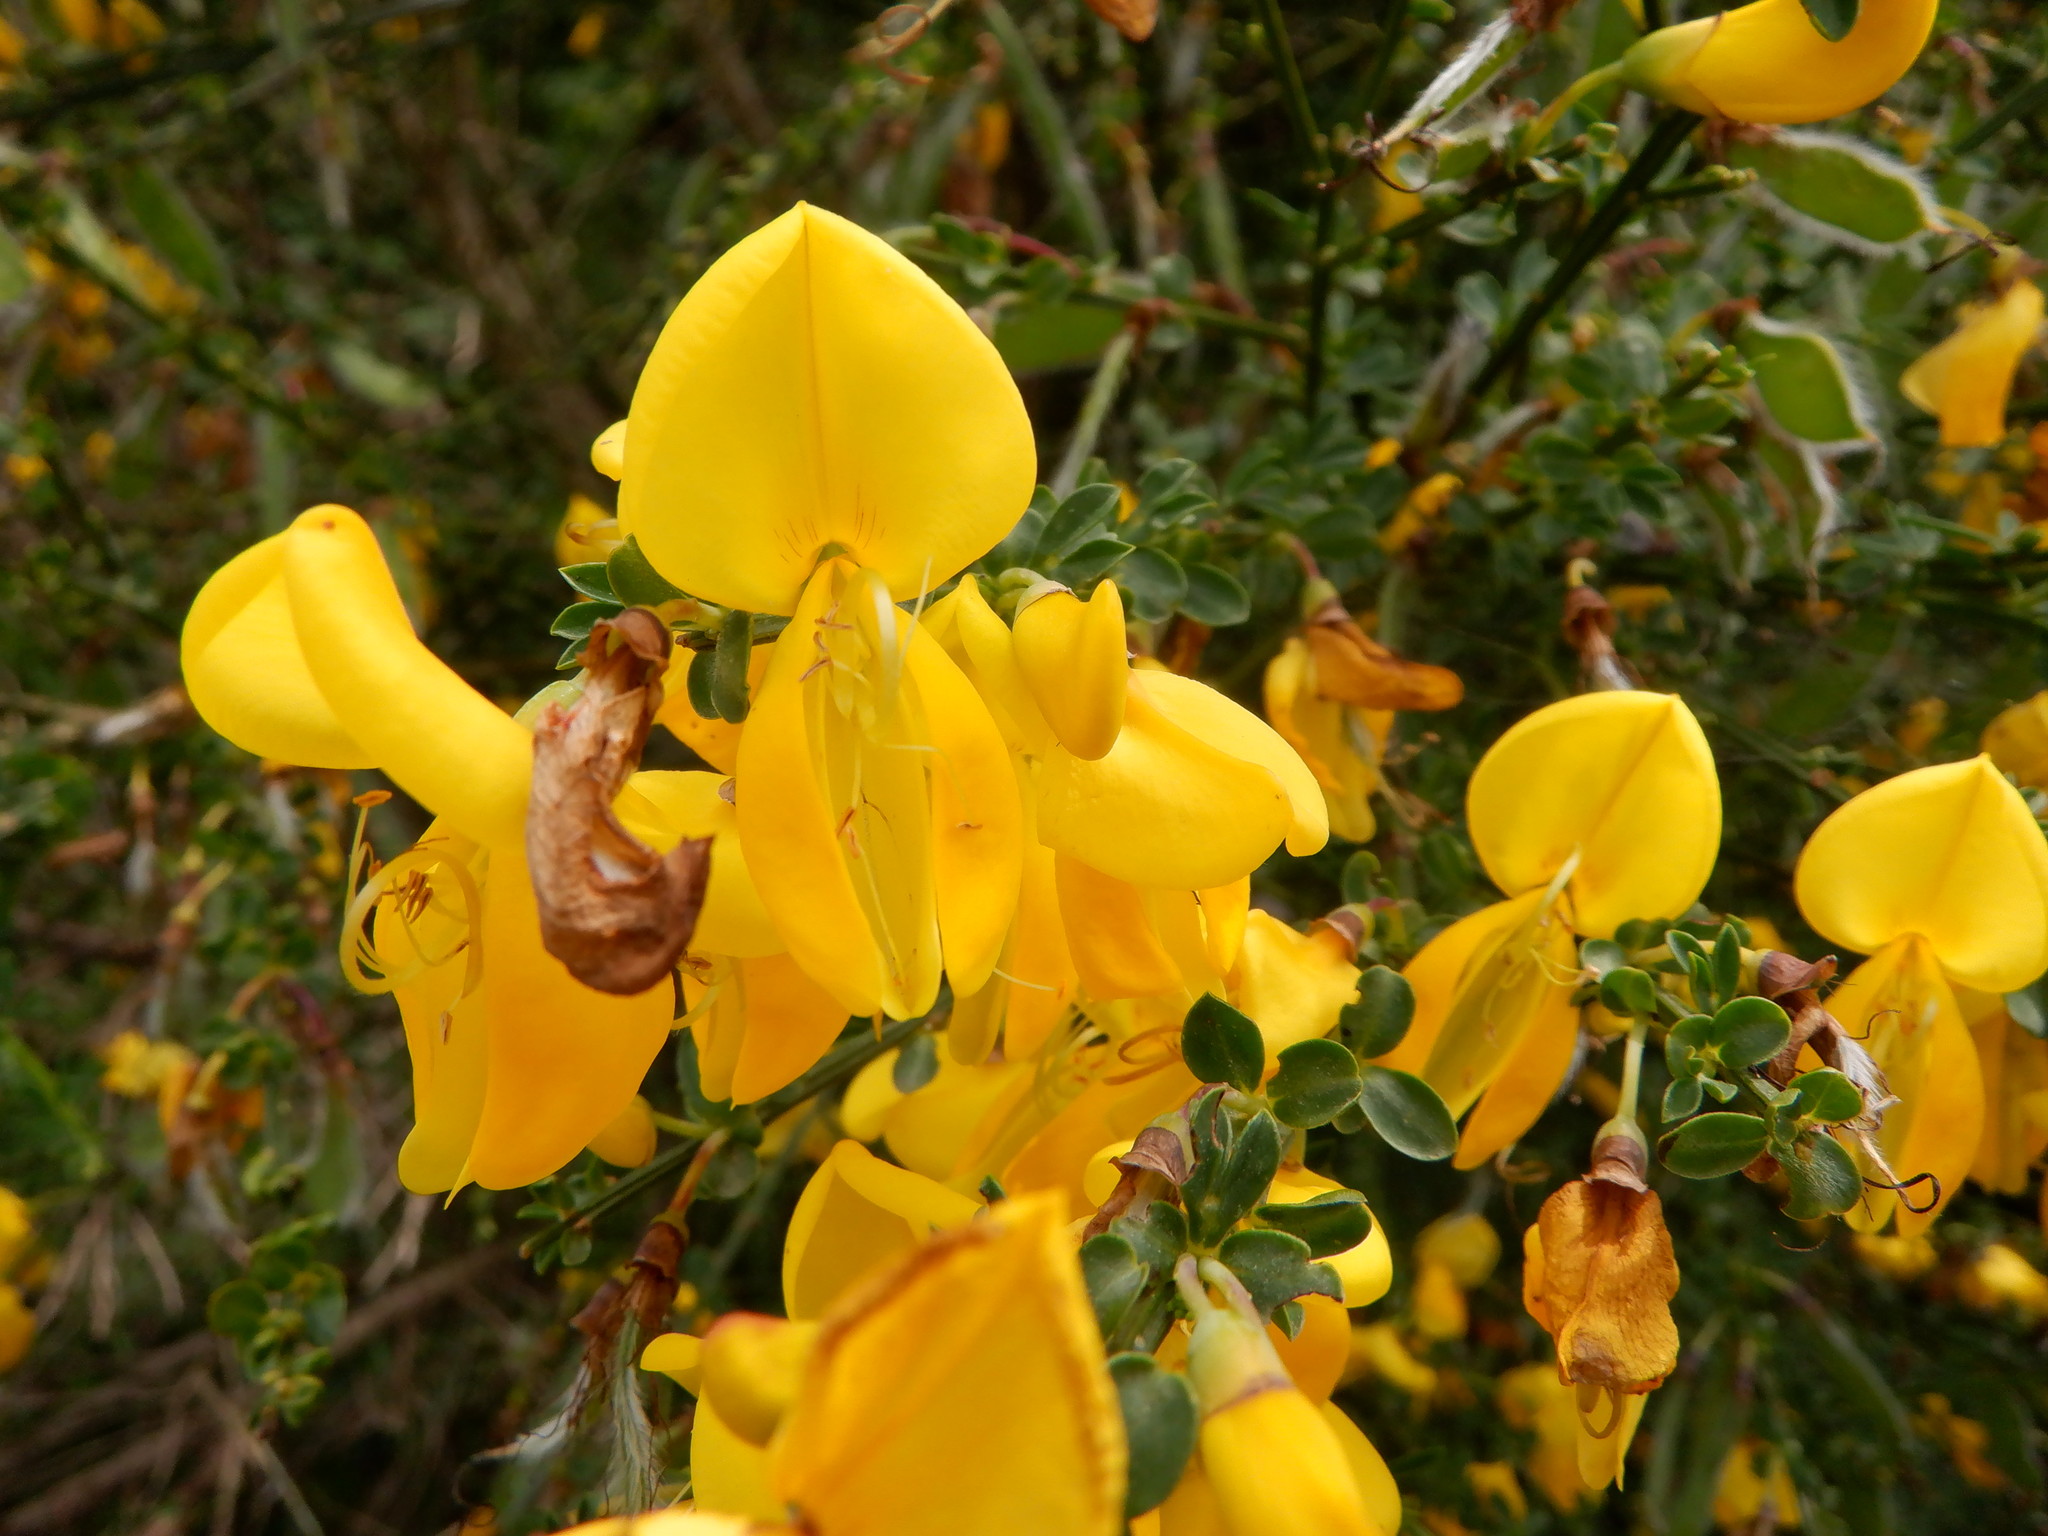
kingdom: Plantae
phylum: Tracheophyta
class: Magnoliopsida
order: Fabales
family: Fabaceae
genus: Cytisus
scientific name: Cytisus scoparius
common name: Scotch broom
